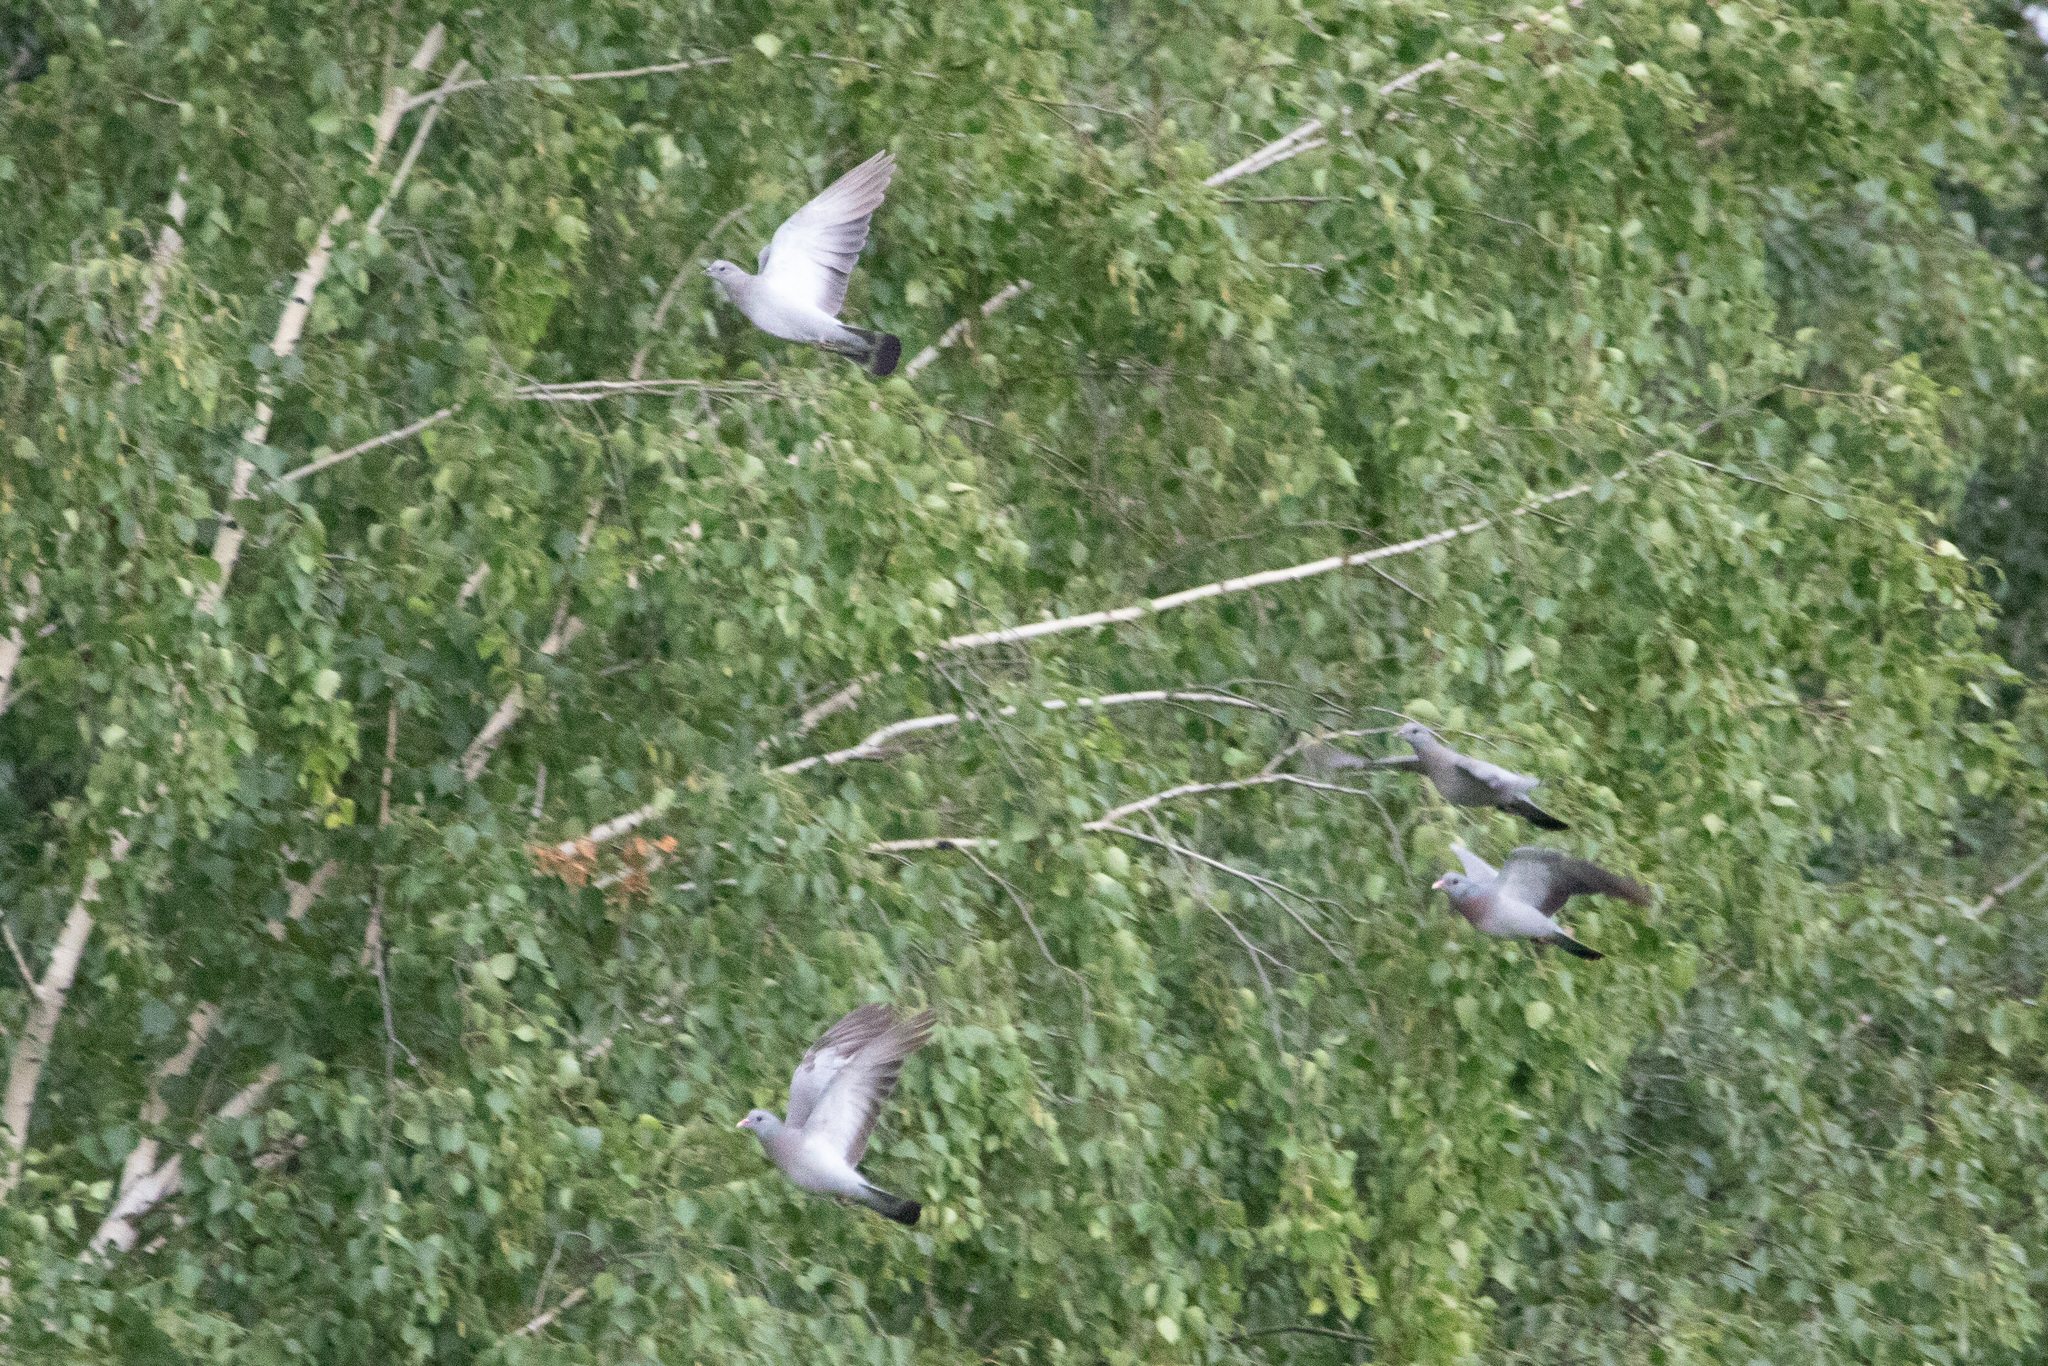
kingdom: Animalia
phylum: Chordata
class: Aves
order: Columbiformes
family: Columbidae
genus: Columba
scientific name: Columba oenas
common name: Stock dove
